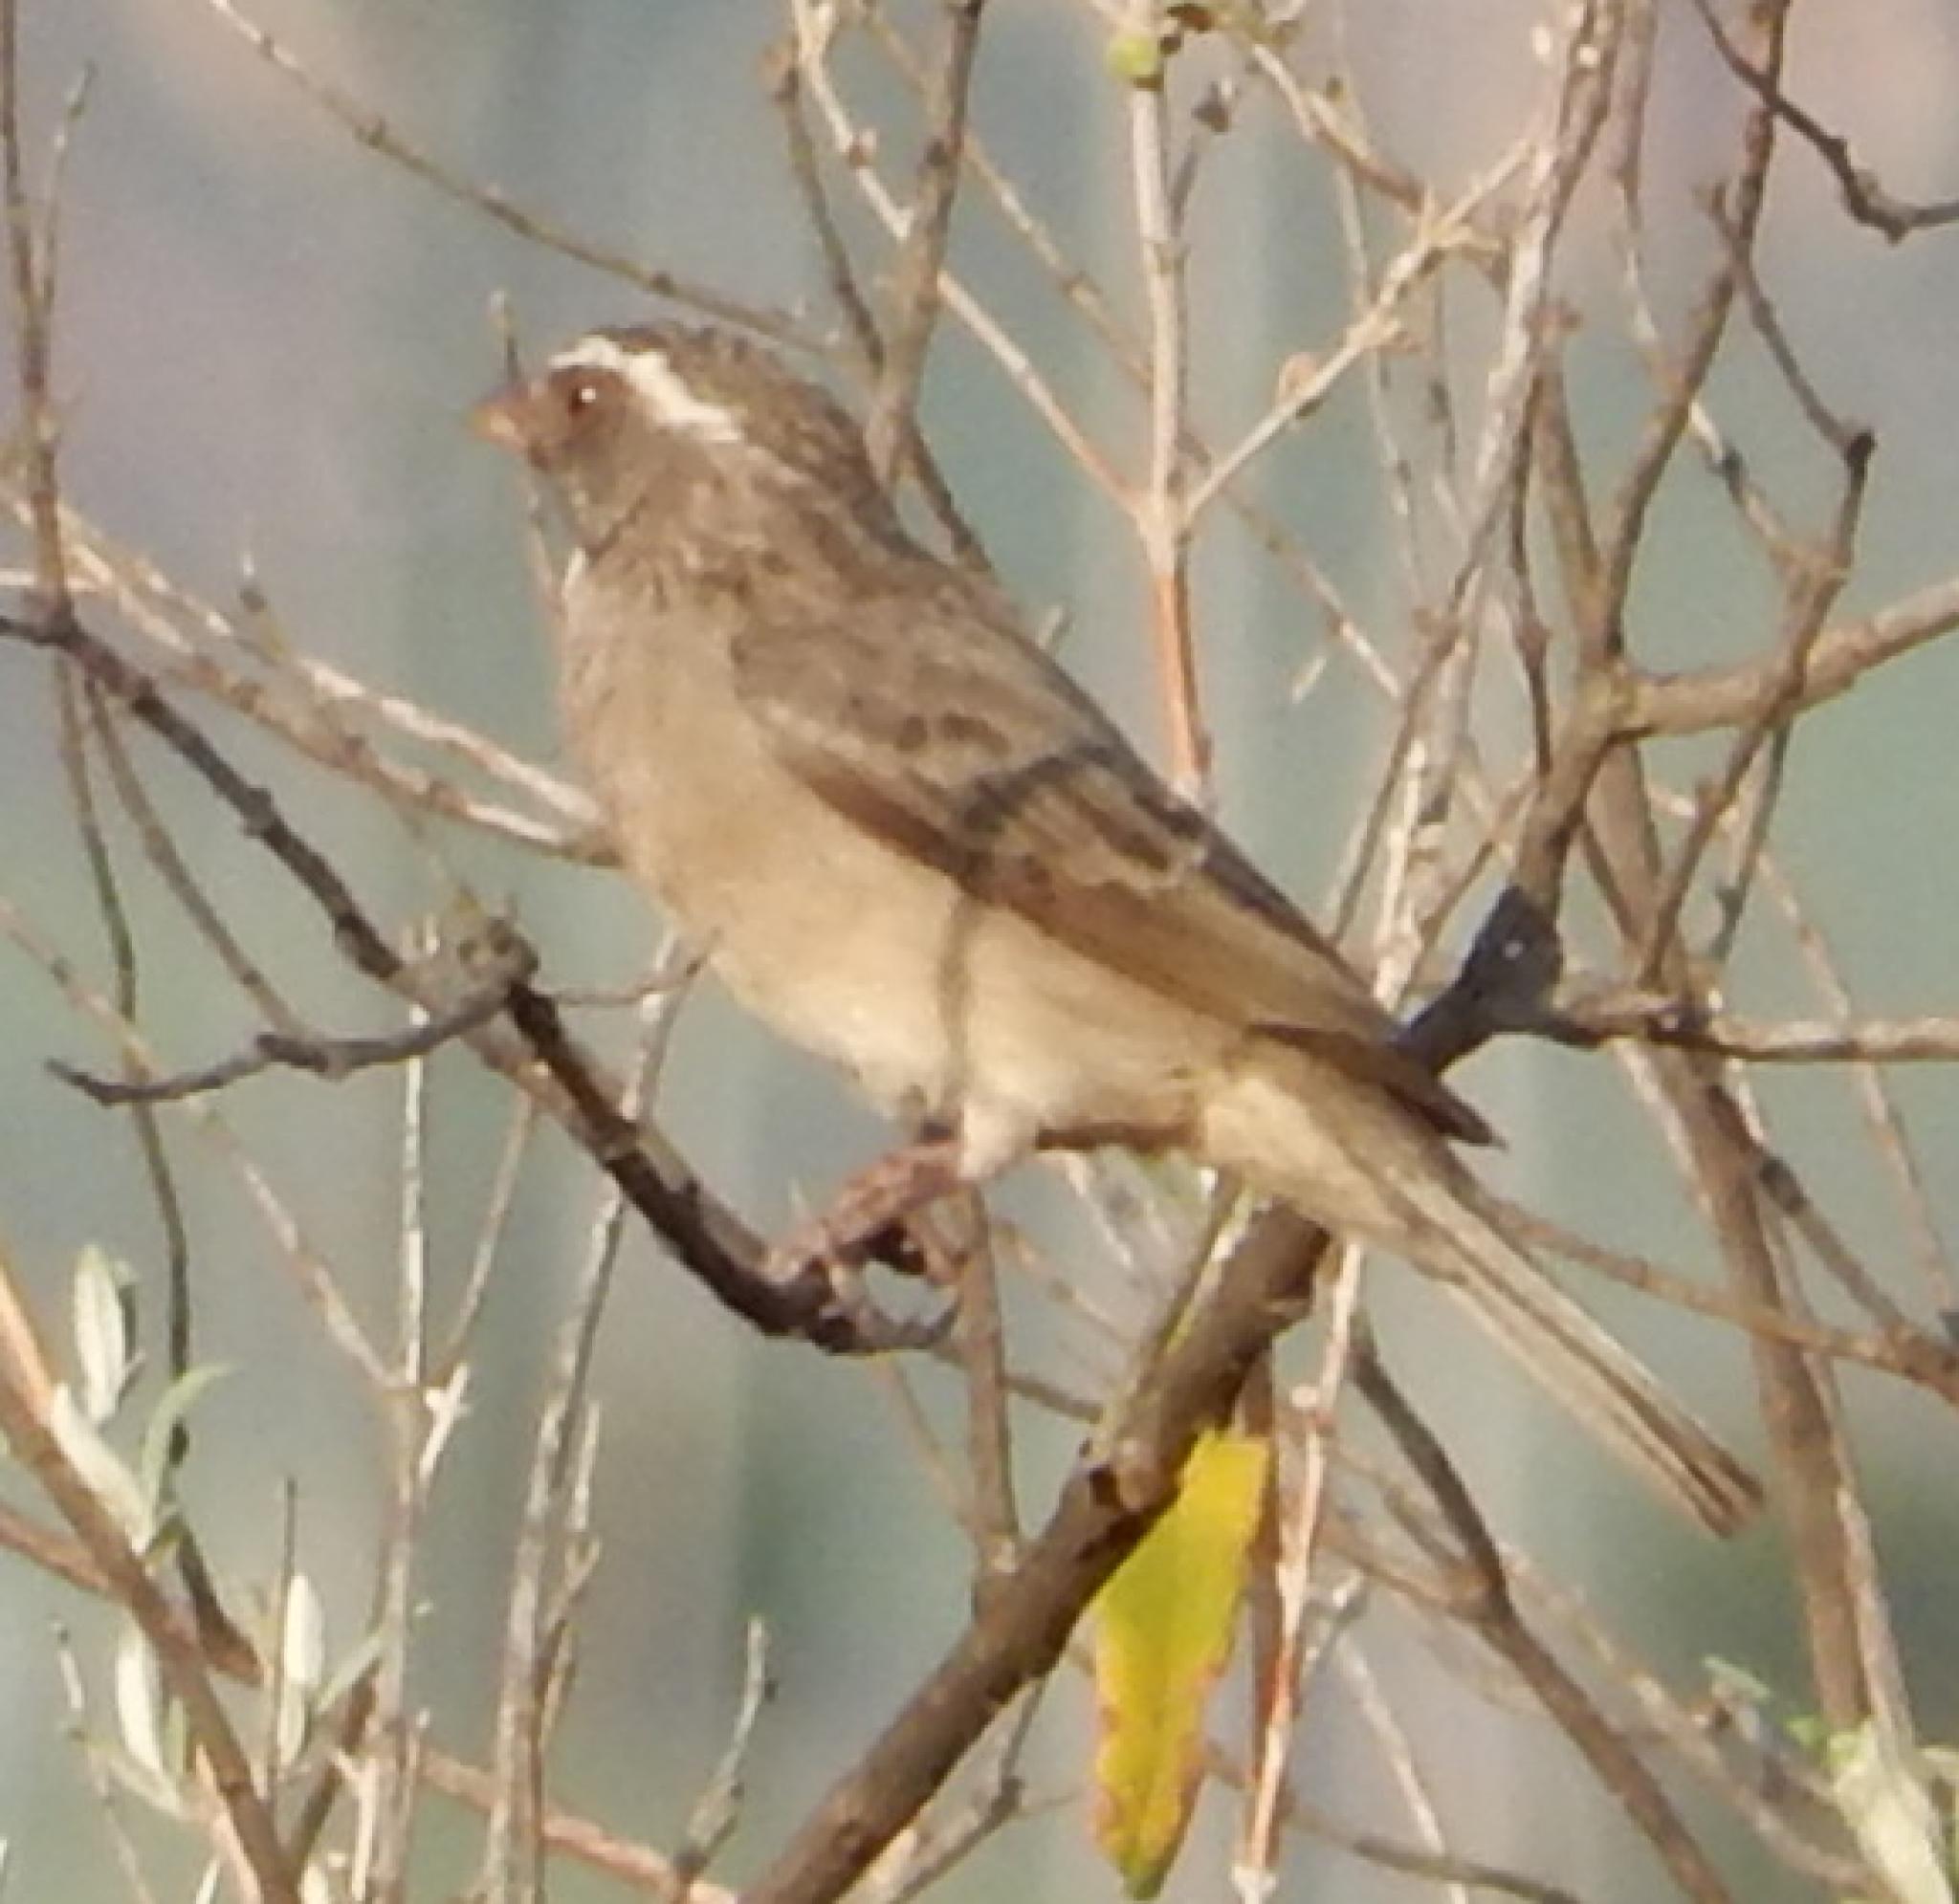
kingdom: Animalia
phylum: Chordata
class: Aves
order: Passeriformes
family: Fringillidae
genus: Crithagra
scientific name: Crithagra gularis
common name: Streaky-headed seedeater
